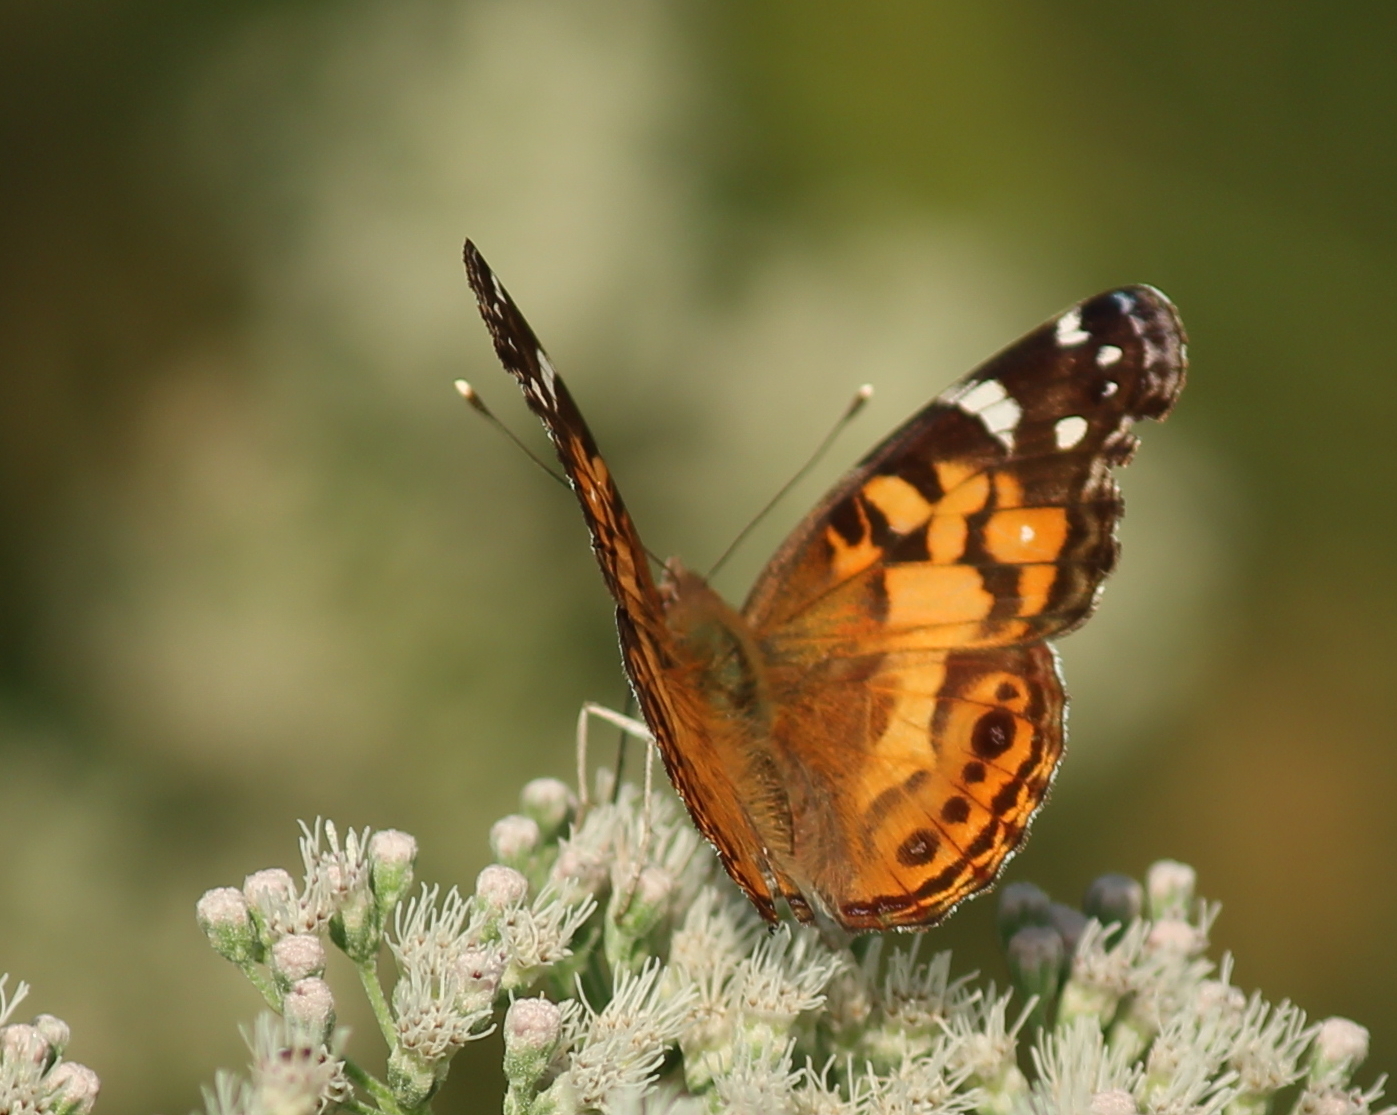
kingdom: Animalia
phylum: Arthropoda
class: Insecta
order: Lepidoptera
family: Nymphalidae
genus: Vanessa
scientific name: Vanessa virginiensis
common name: American lady
